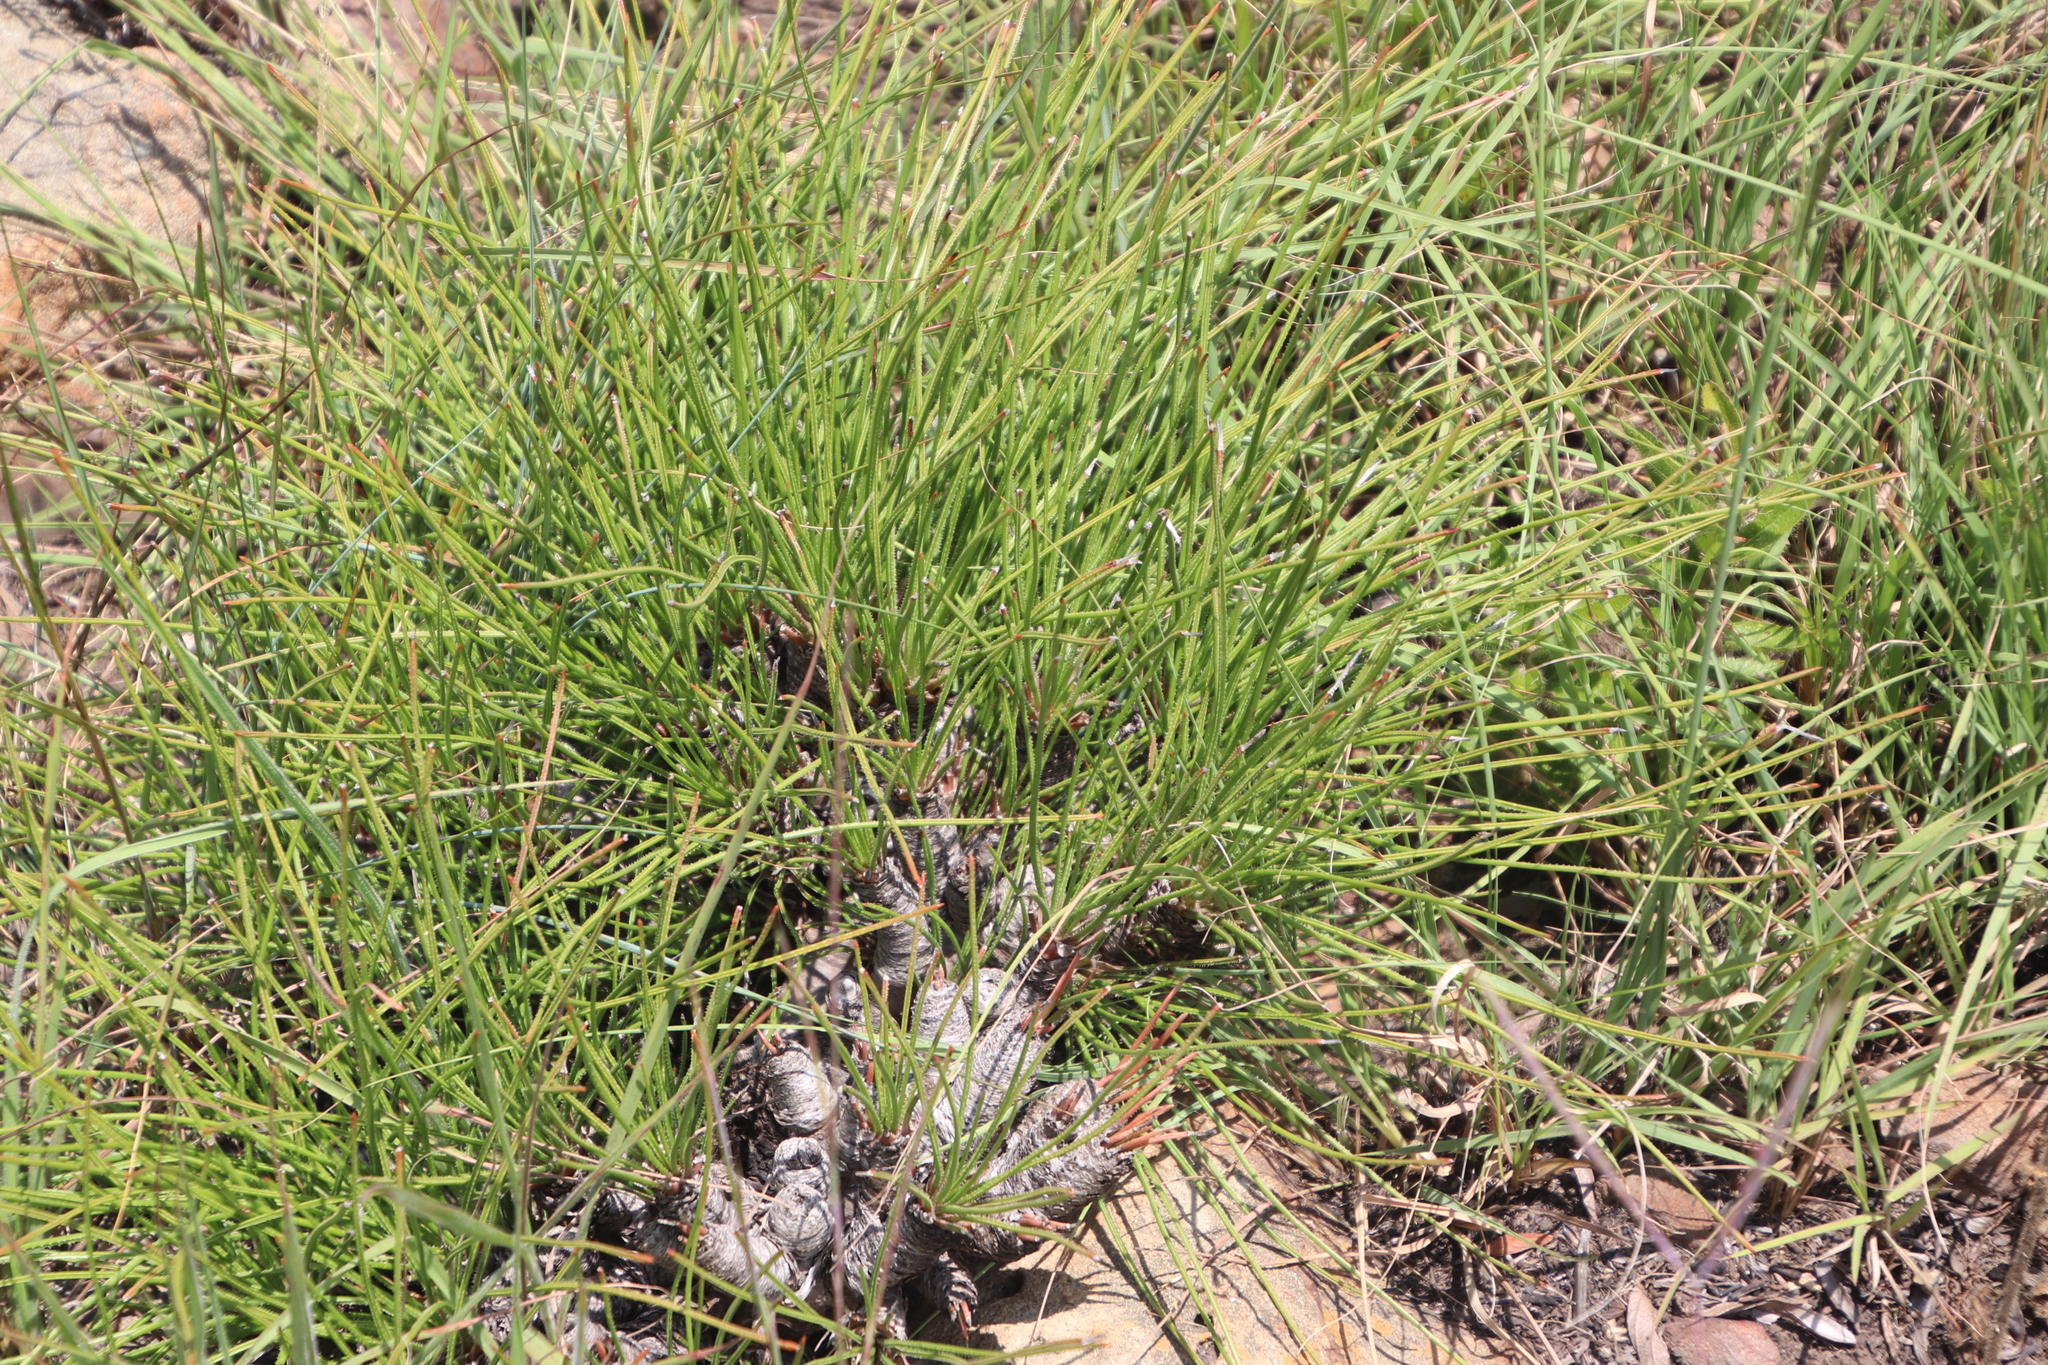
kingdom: Plantae
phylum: Tracheophyta
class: Liliopsida
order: Asparagales
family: Asphodelaceae
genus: Aloe
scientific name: Aloe chortolirioides
